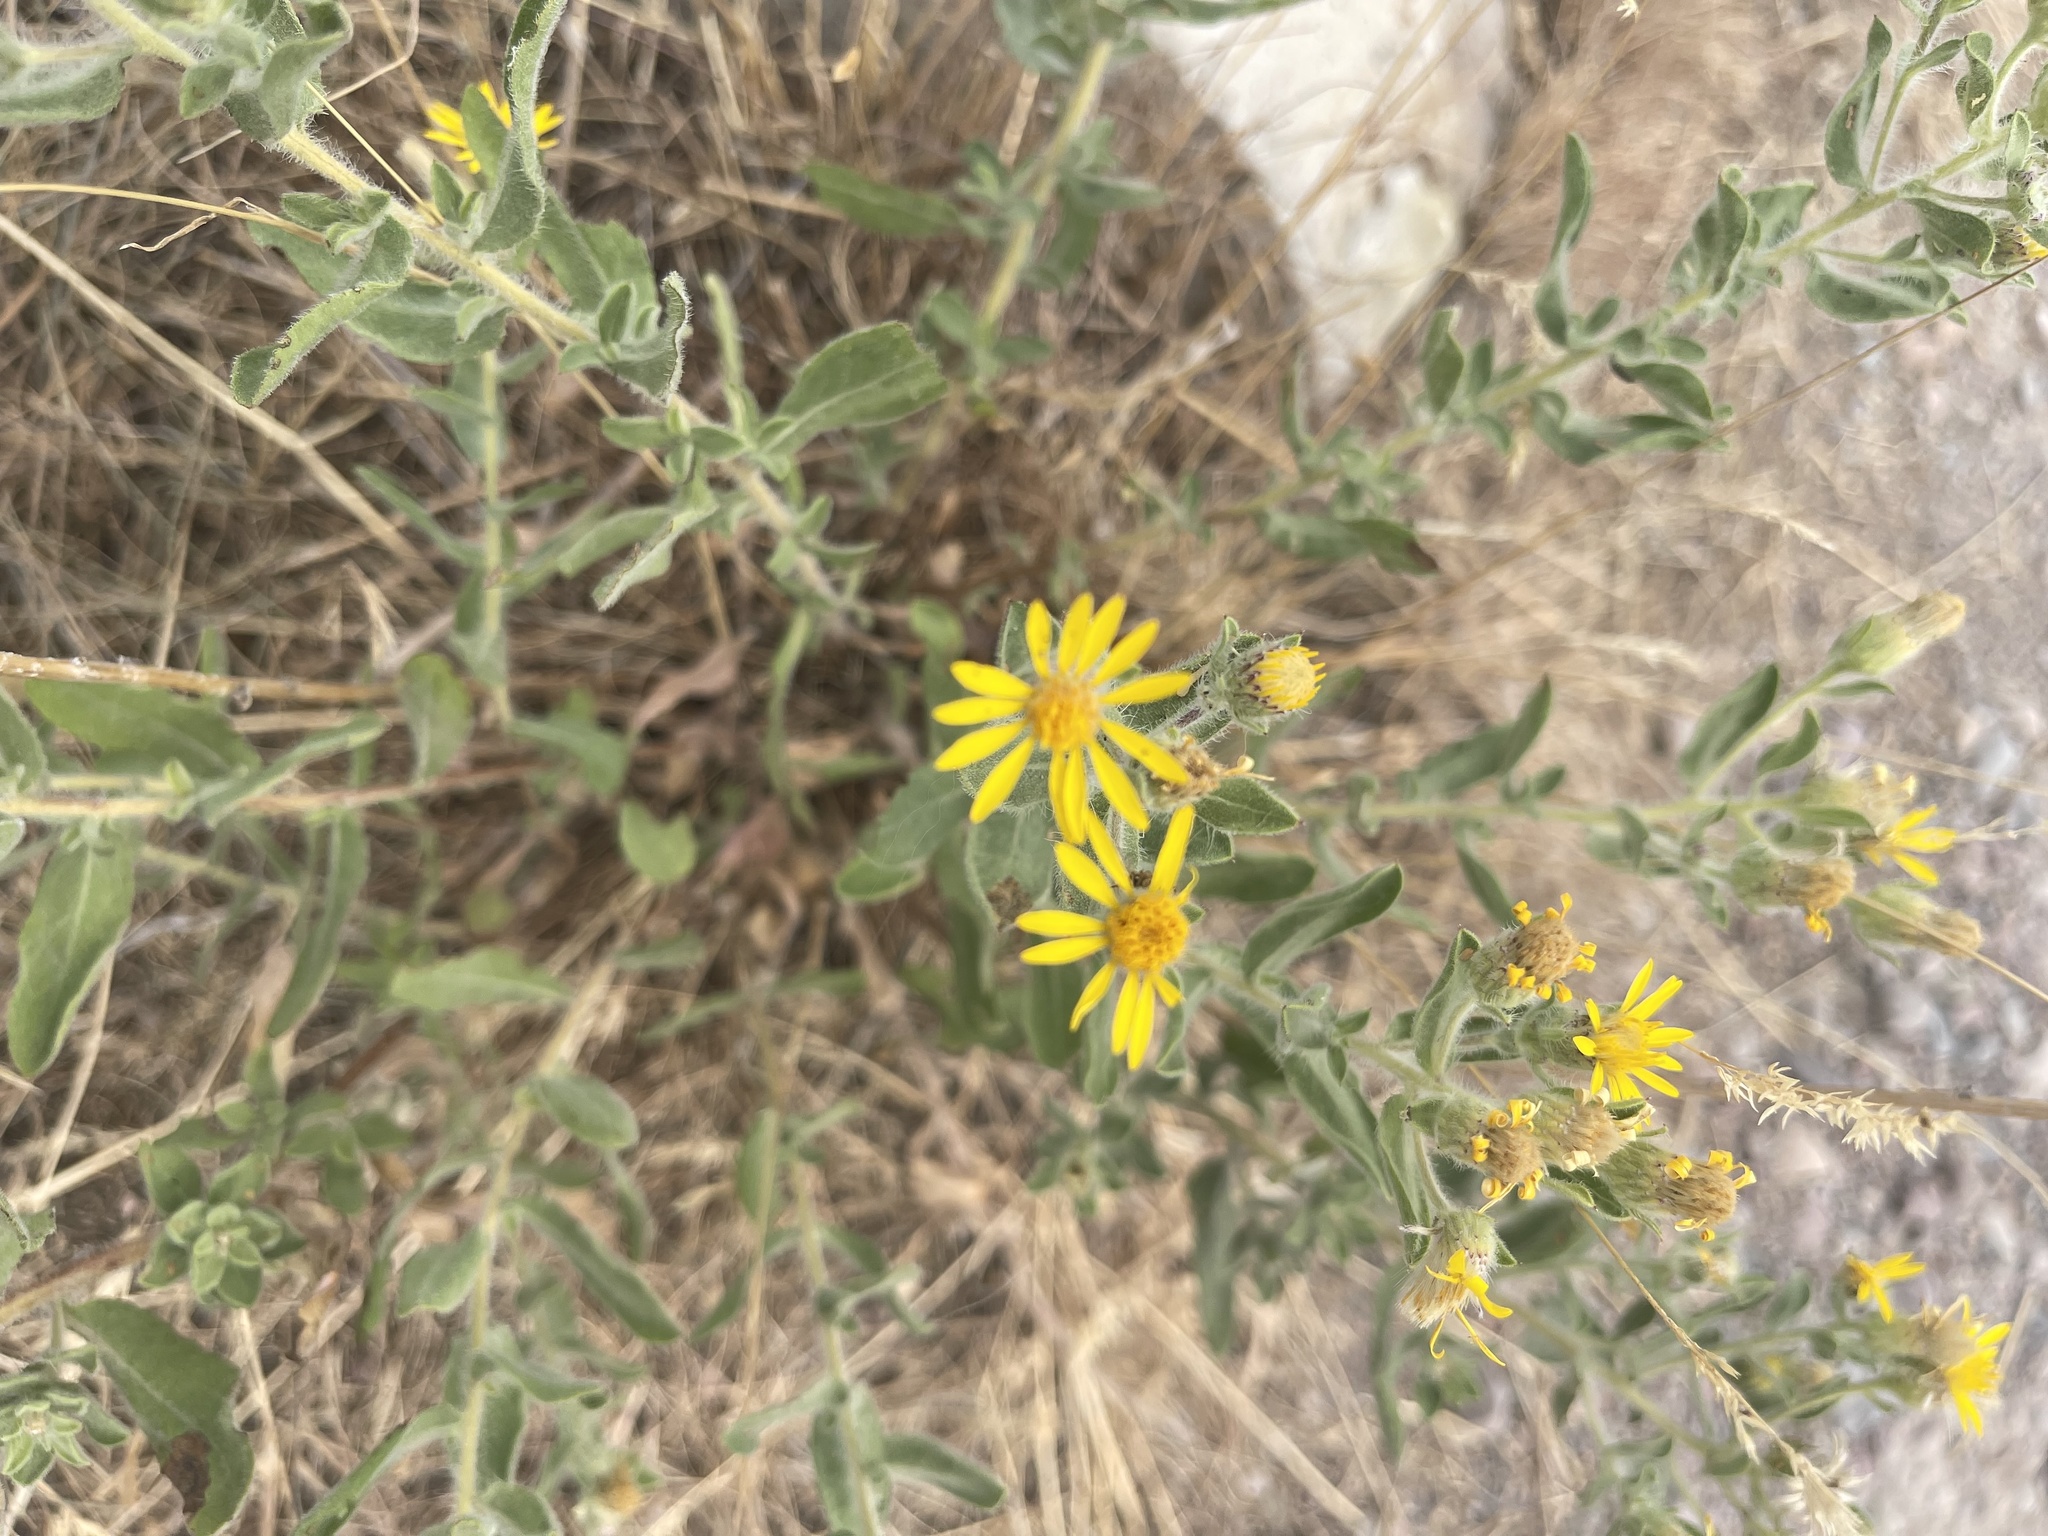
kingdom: Plantae
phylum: Tracheophyta
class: Magnoliopsida
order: Asterales
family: Asteraceae
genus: Heterotheca
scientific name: Heterotheca hispida
